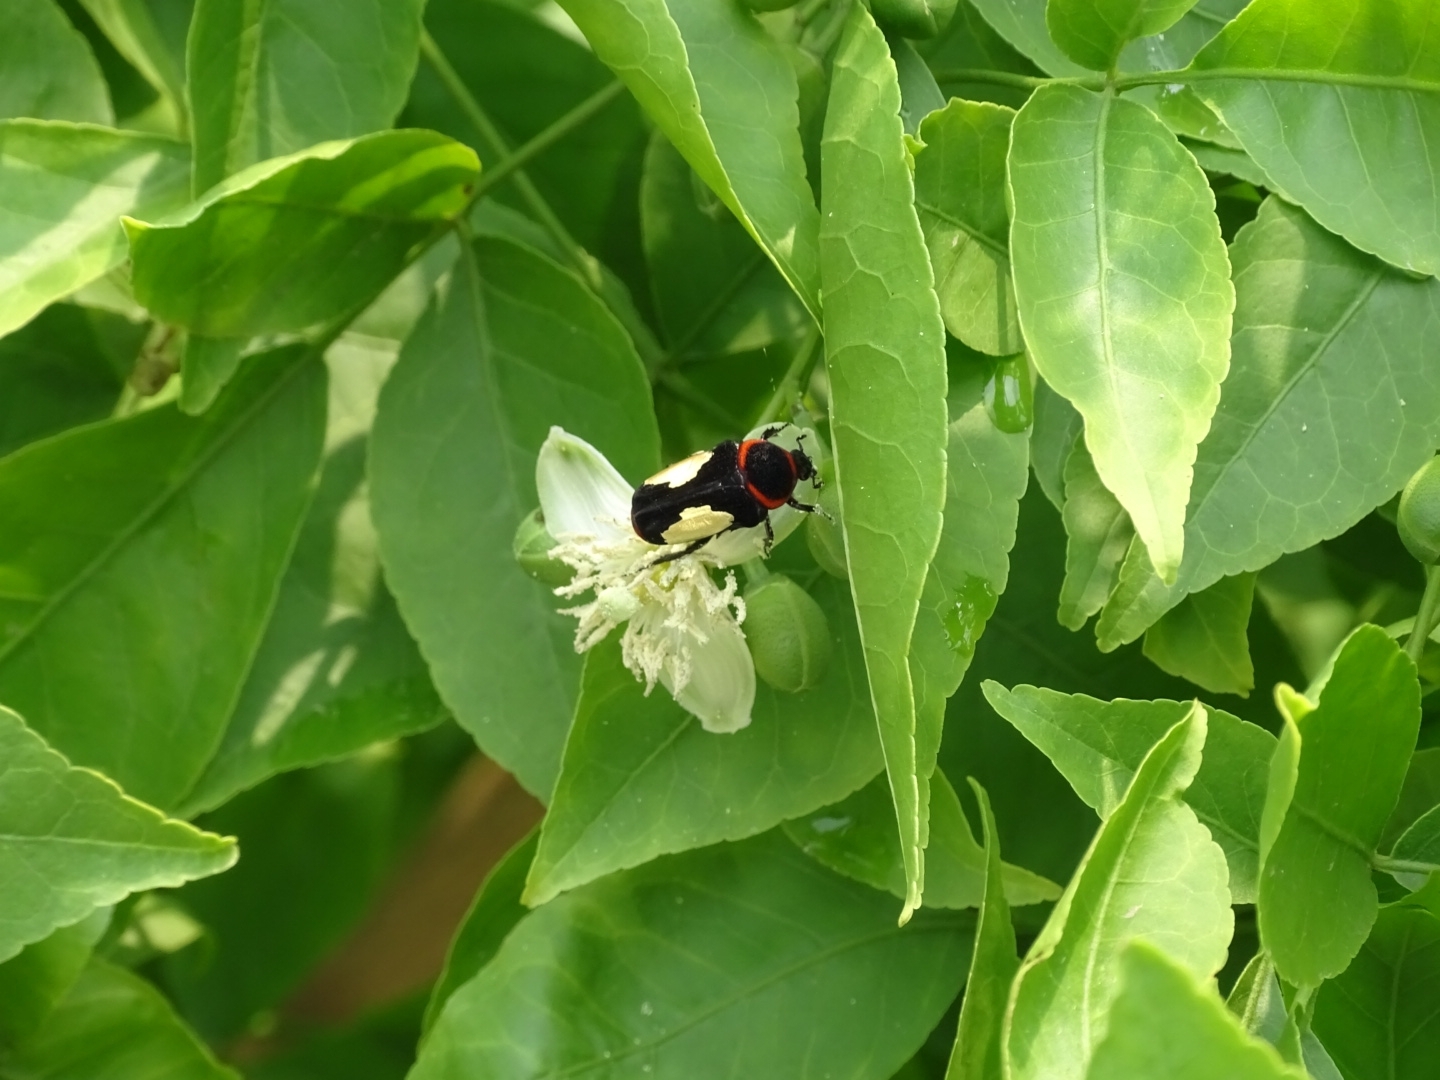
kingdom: Animalia
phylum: Arthropoda
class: Insecta
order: Coleoptera
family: Scarabaeidae
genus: Glycyphana
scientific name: Glycyphana horsfieldi
